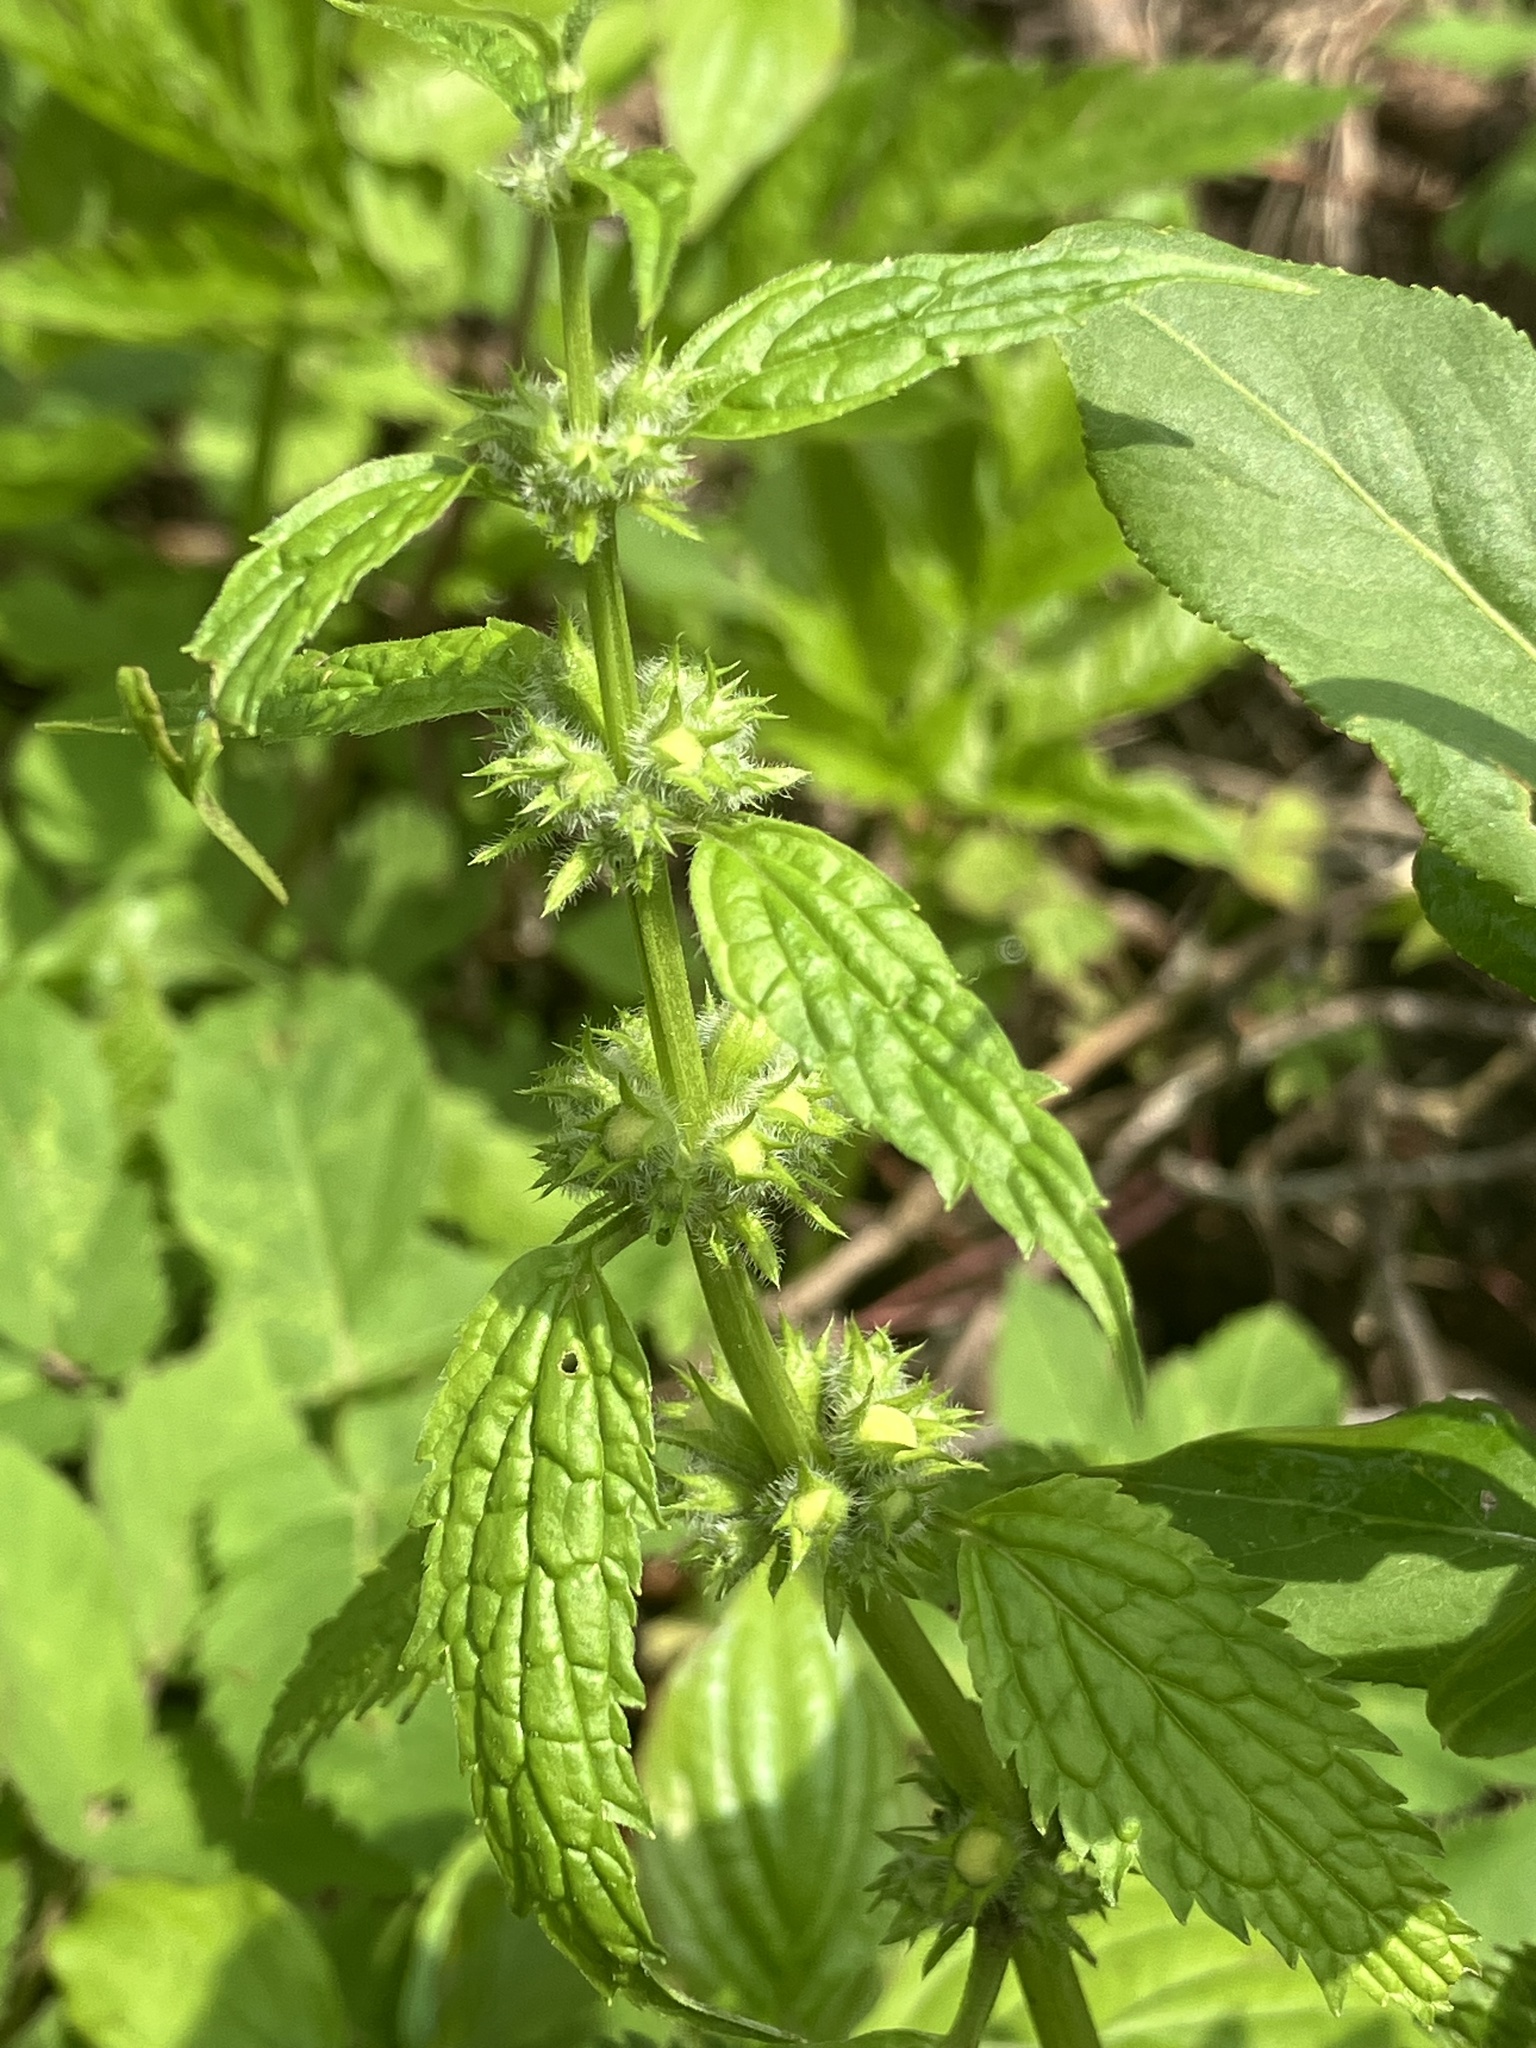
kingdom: Plantae
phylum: Tracheophyta
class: Magnoliopsida
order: Lamiales
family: Lamiaceae
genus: Lamium
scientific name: Lamium galeobdolon
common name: Yellow archangel
